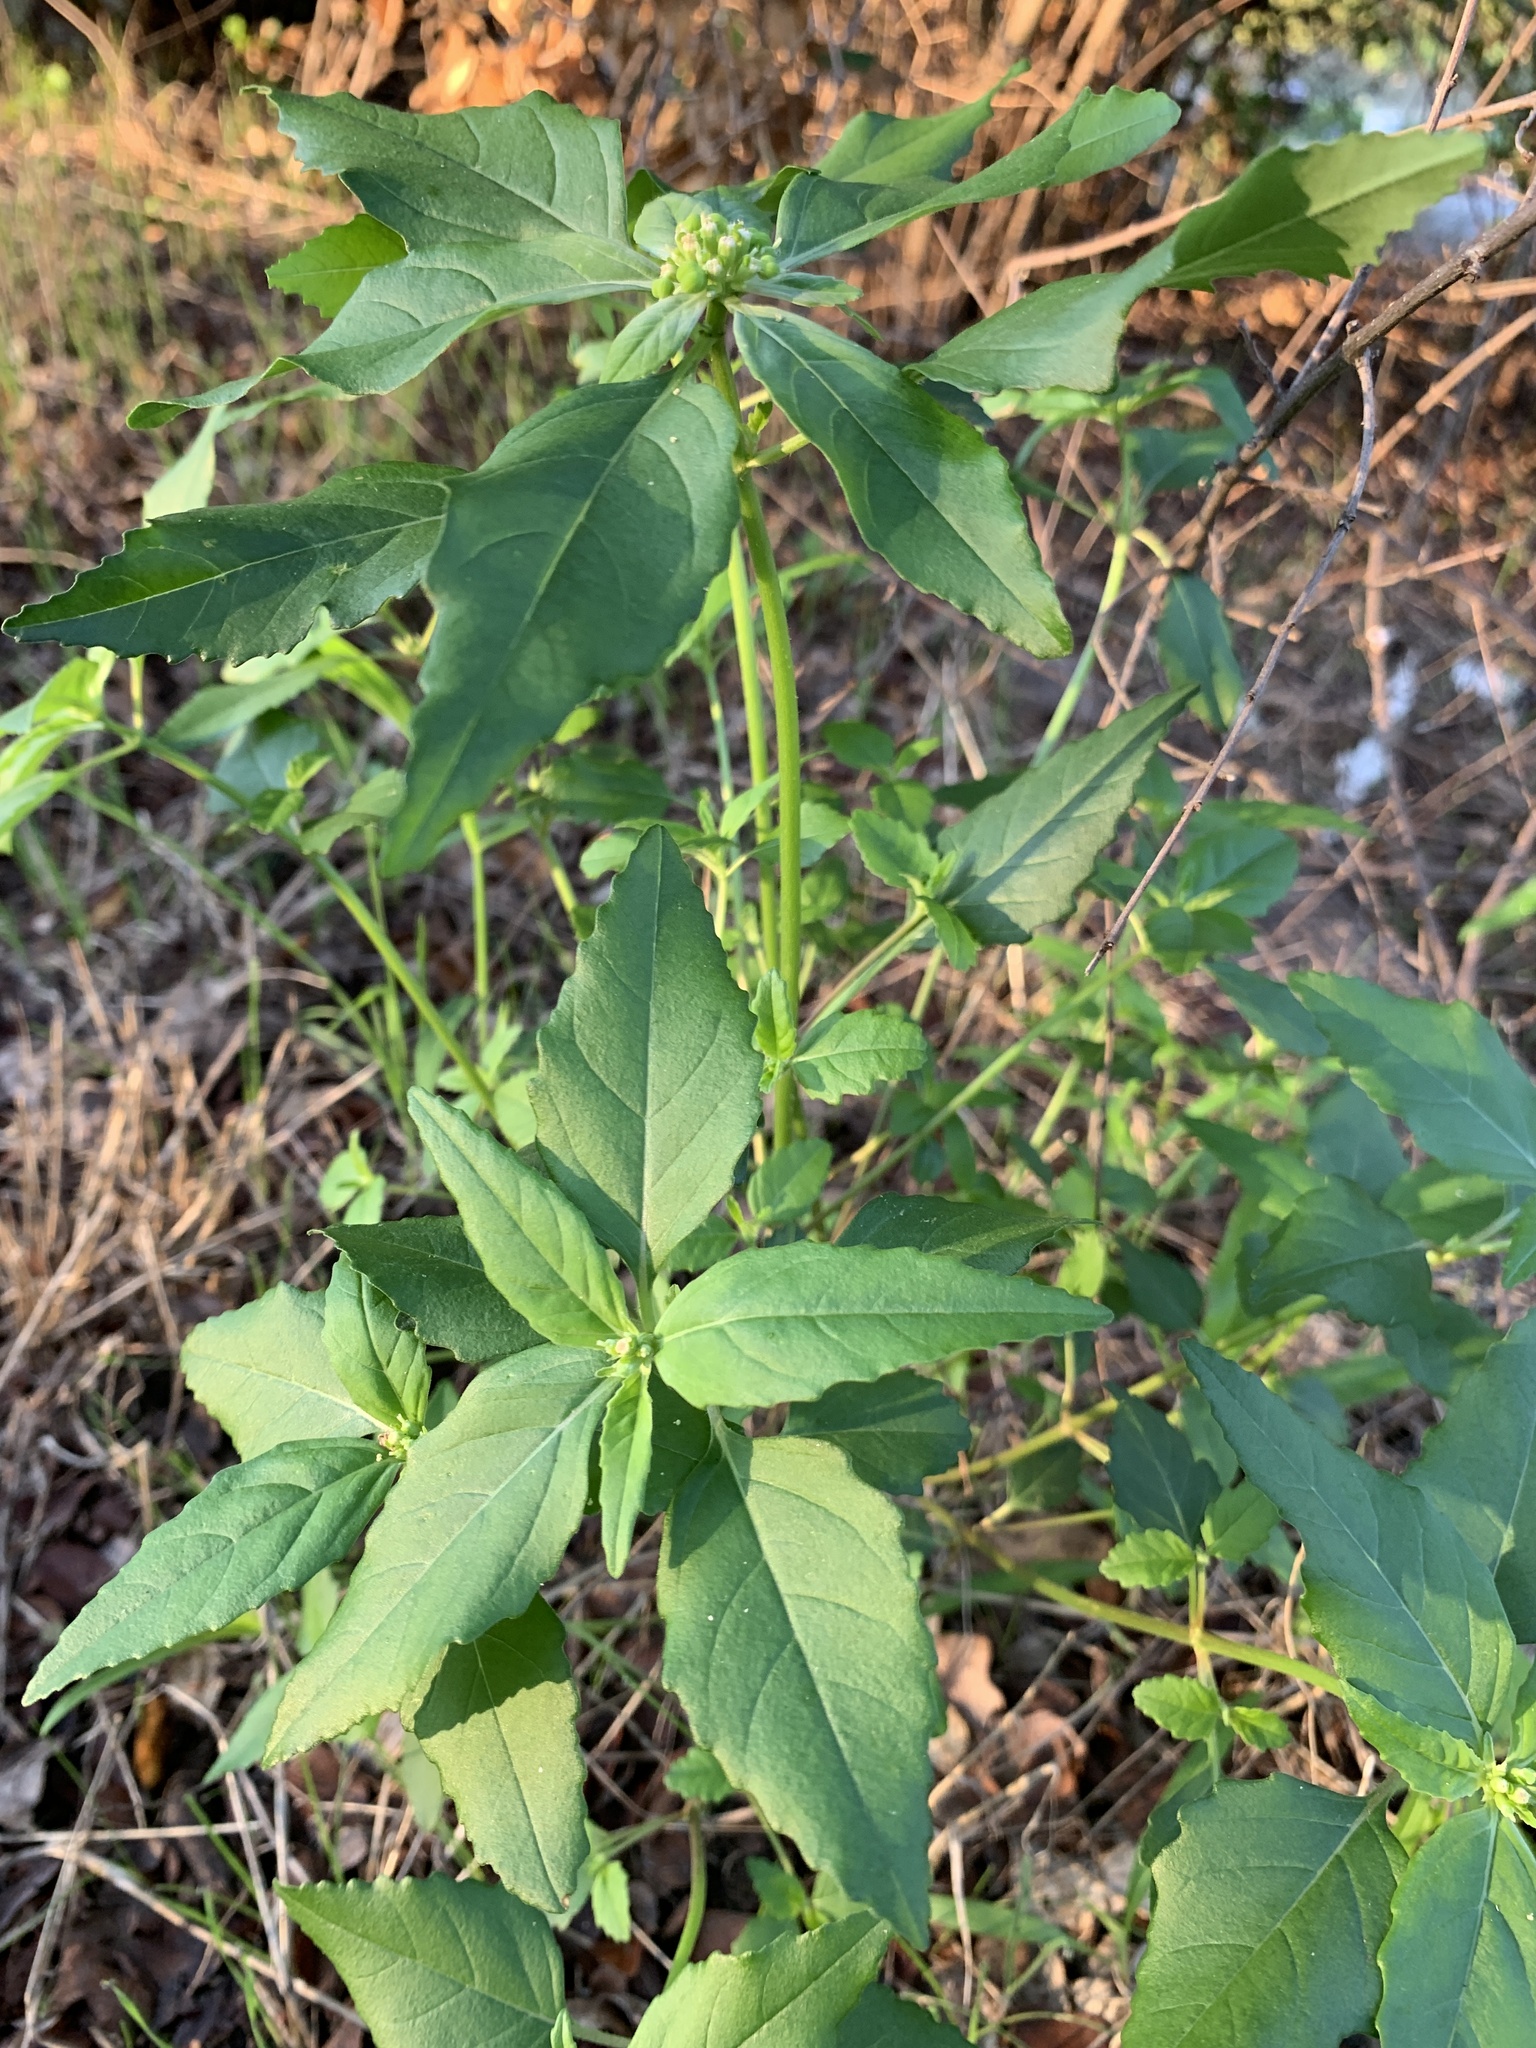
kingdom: Plantae
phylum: Tracheophyta
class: Magnoliopsida
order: Malpighiales
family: Euphorbiaceae
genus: Euphorbia
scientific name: Euphorbia dentata
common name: Dentate spurge
